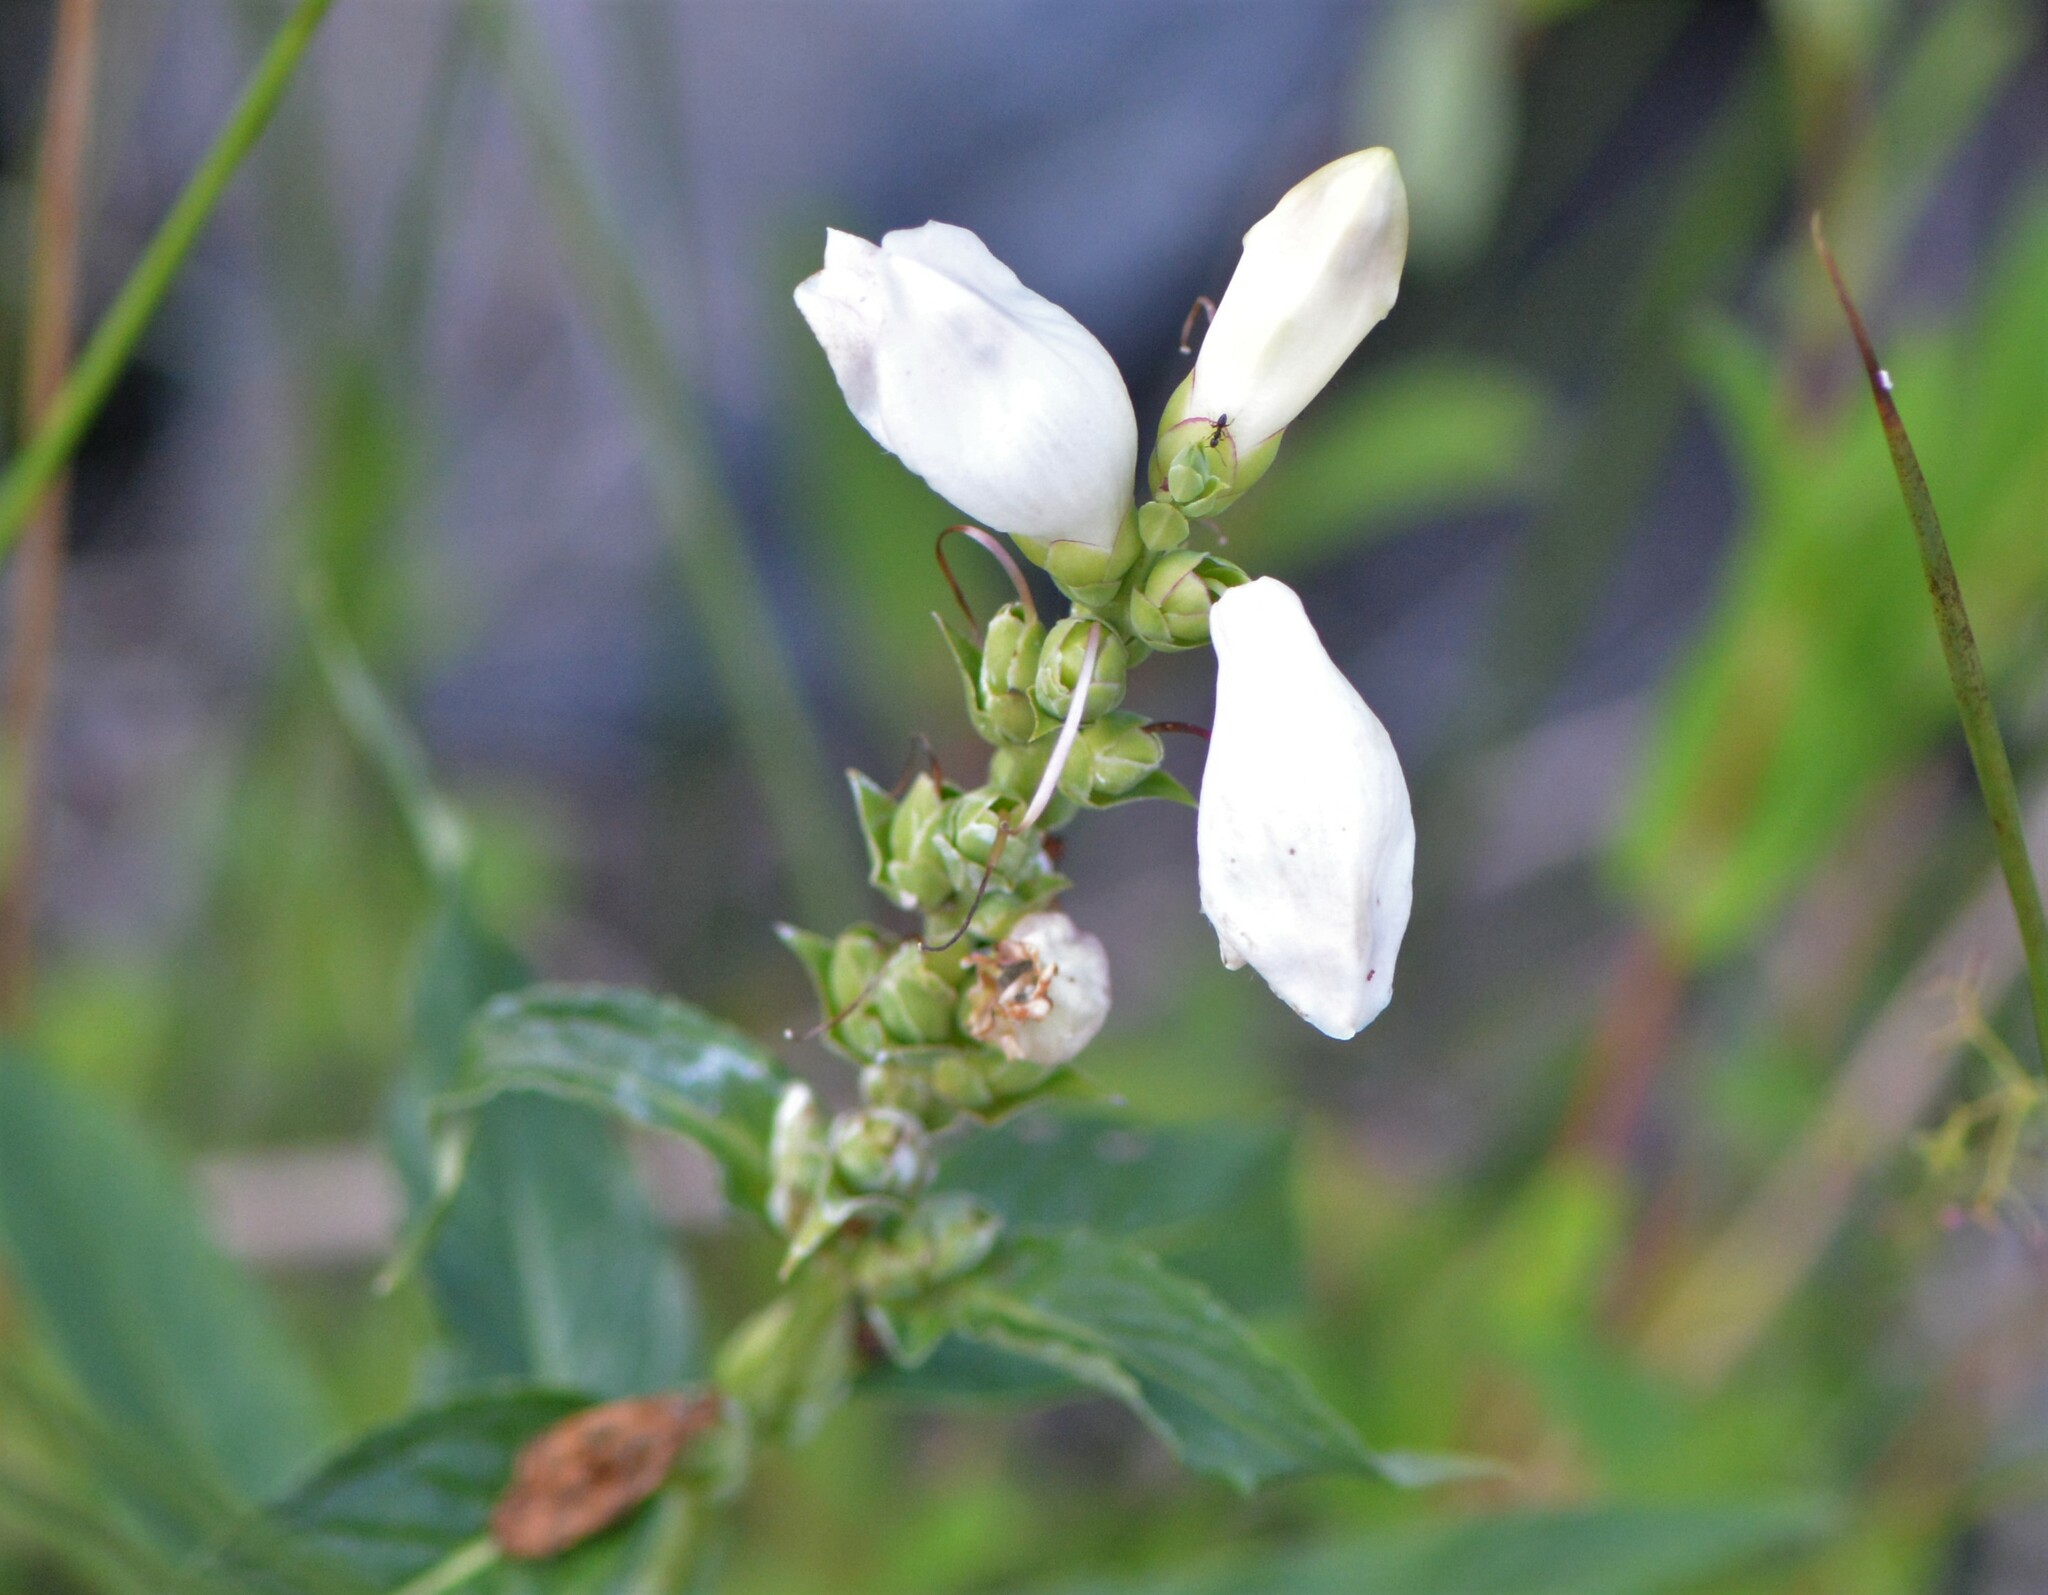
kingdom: Plantae
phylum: Tracheophyta
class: Magnoliopsida
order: Lamiales
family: Plantaginaceae
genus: Chelone
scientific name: Chelone glabra
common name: Snakehead
